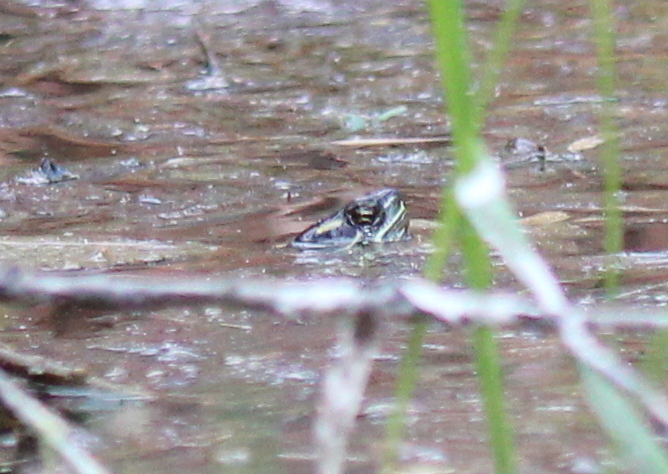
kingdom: Animalia
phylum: Chordata
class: Testudines
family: Emydidae
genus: Chrysemys
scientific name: Chrysemys picta
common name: Painted turtle
